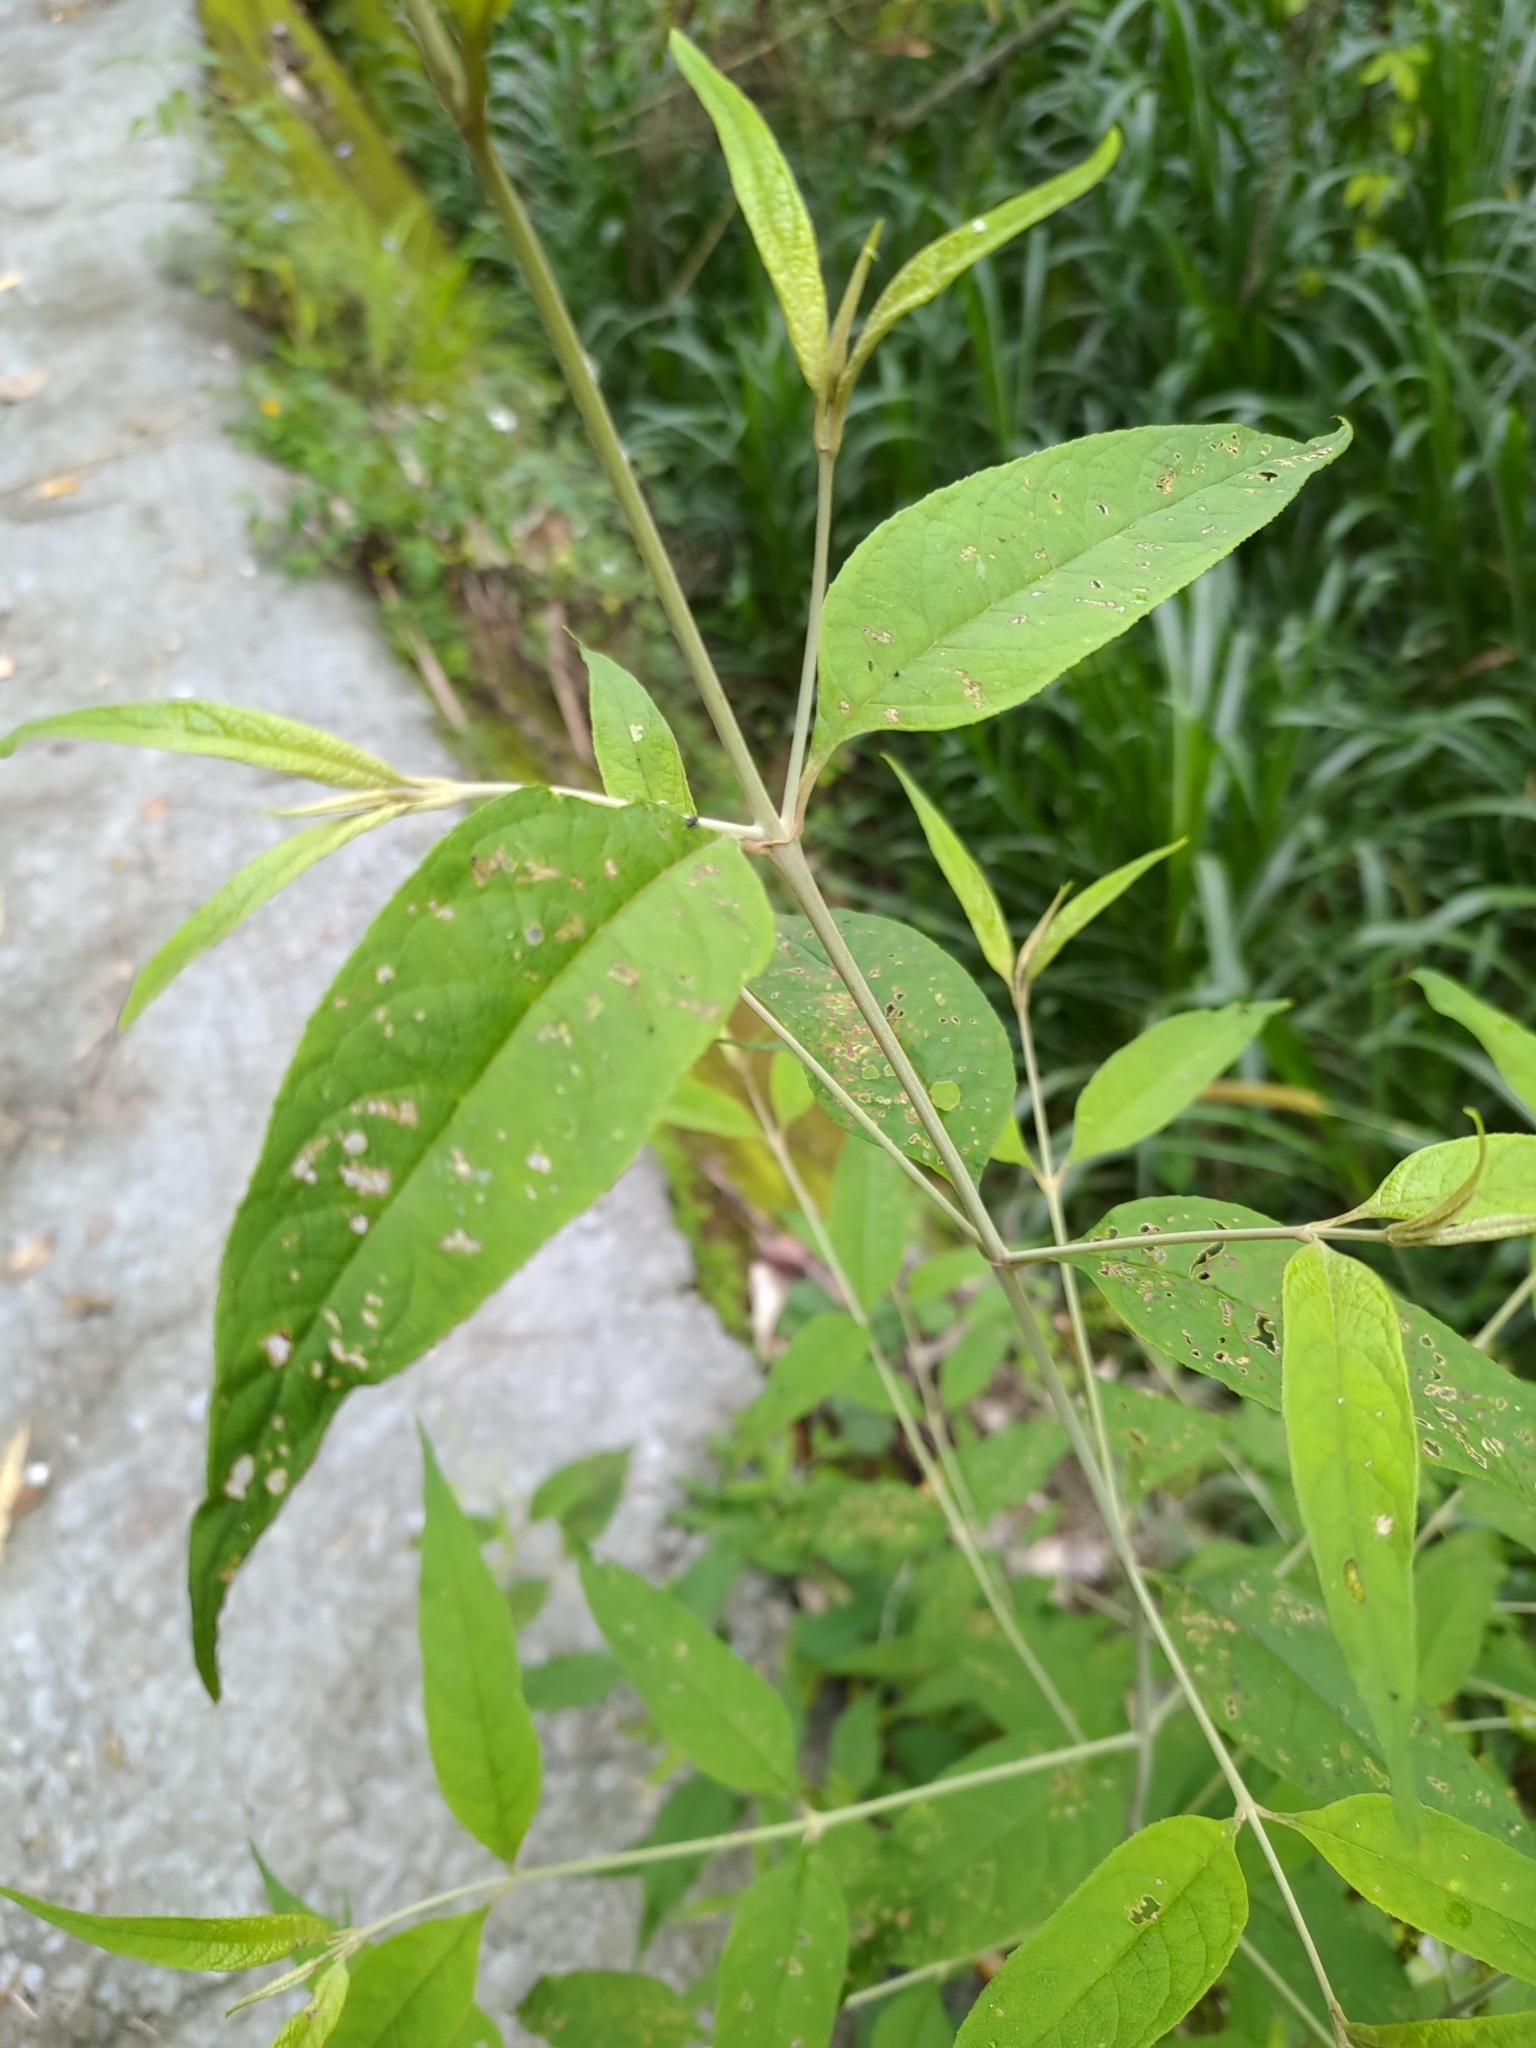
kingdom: Plantae
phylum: Tracheophyta
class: Magnoliopsida
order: Lamiales
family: Scrophulariaceae
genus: Buddleja
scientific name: Buddleja asiatica
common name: Dog tail
